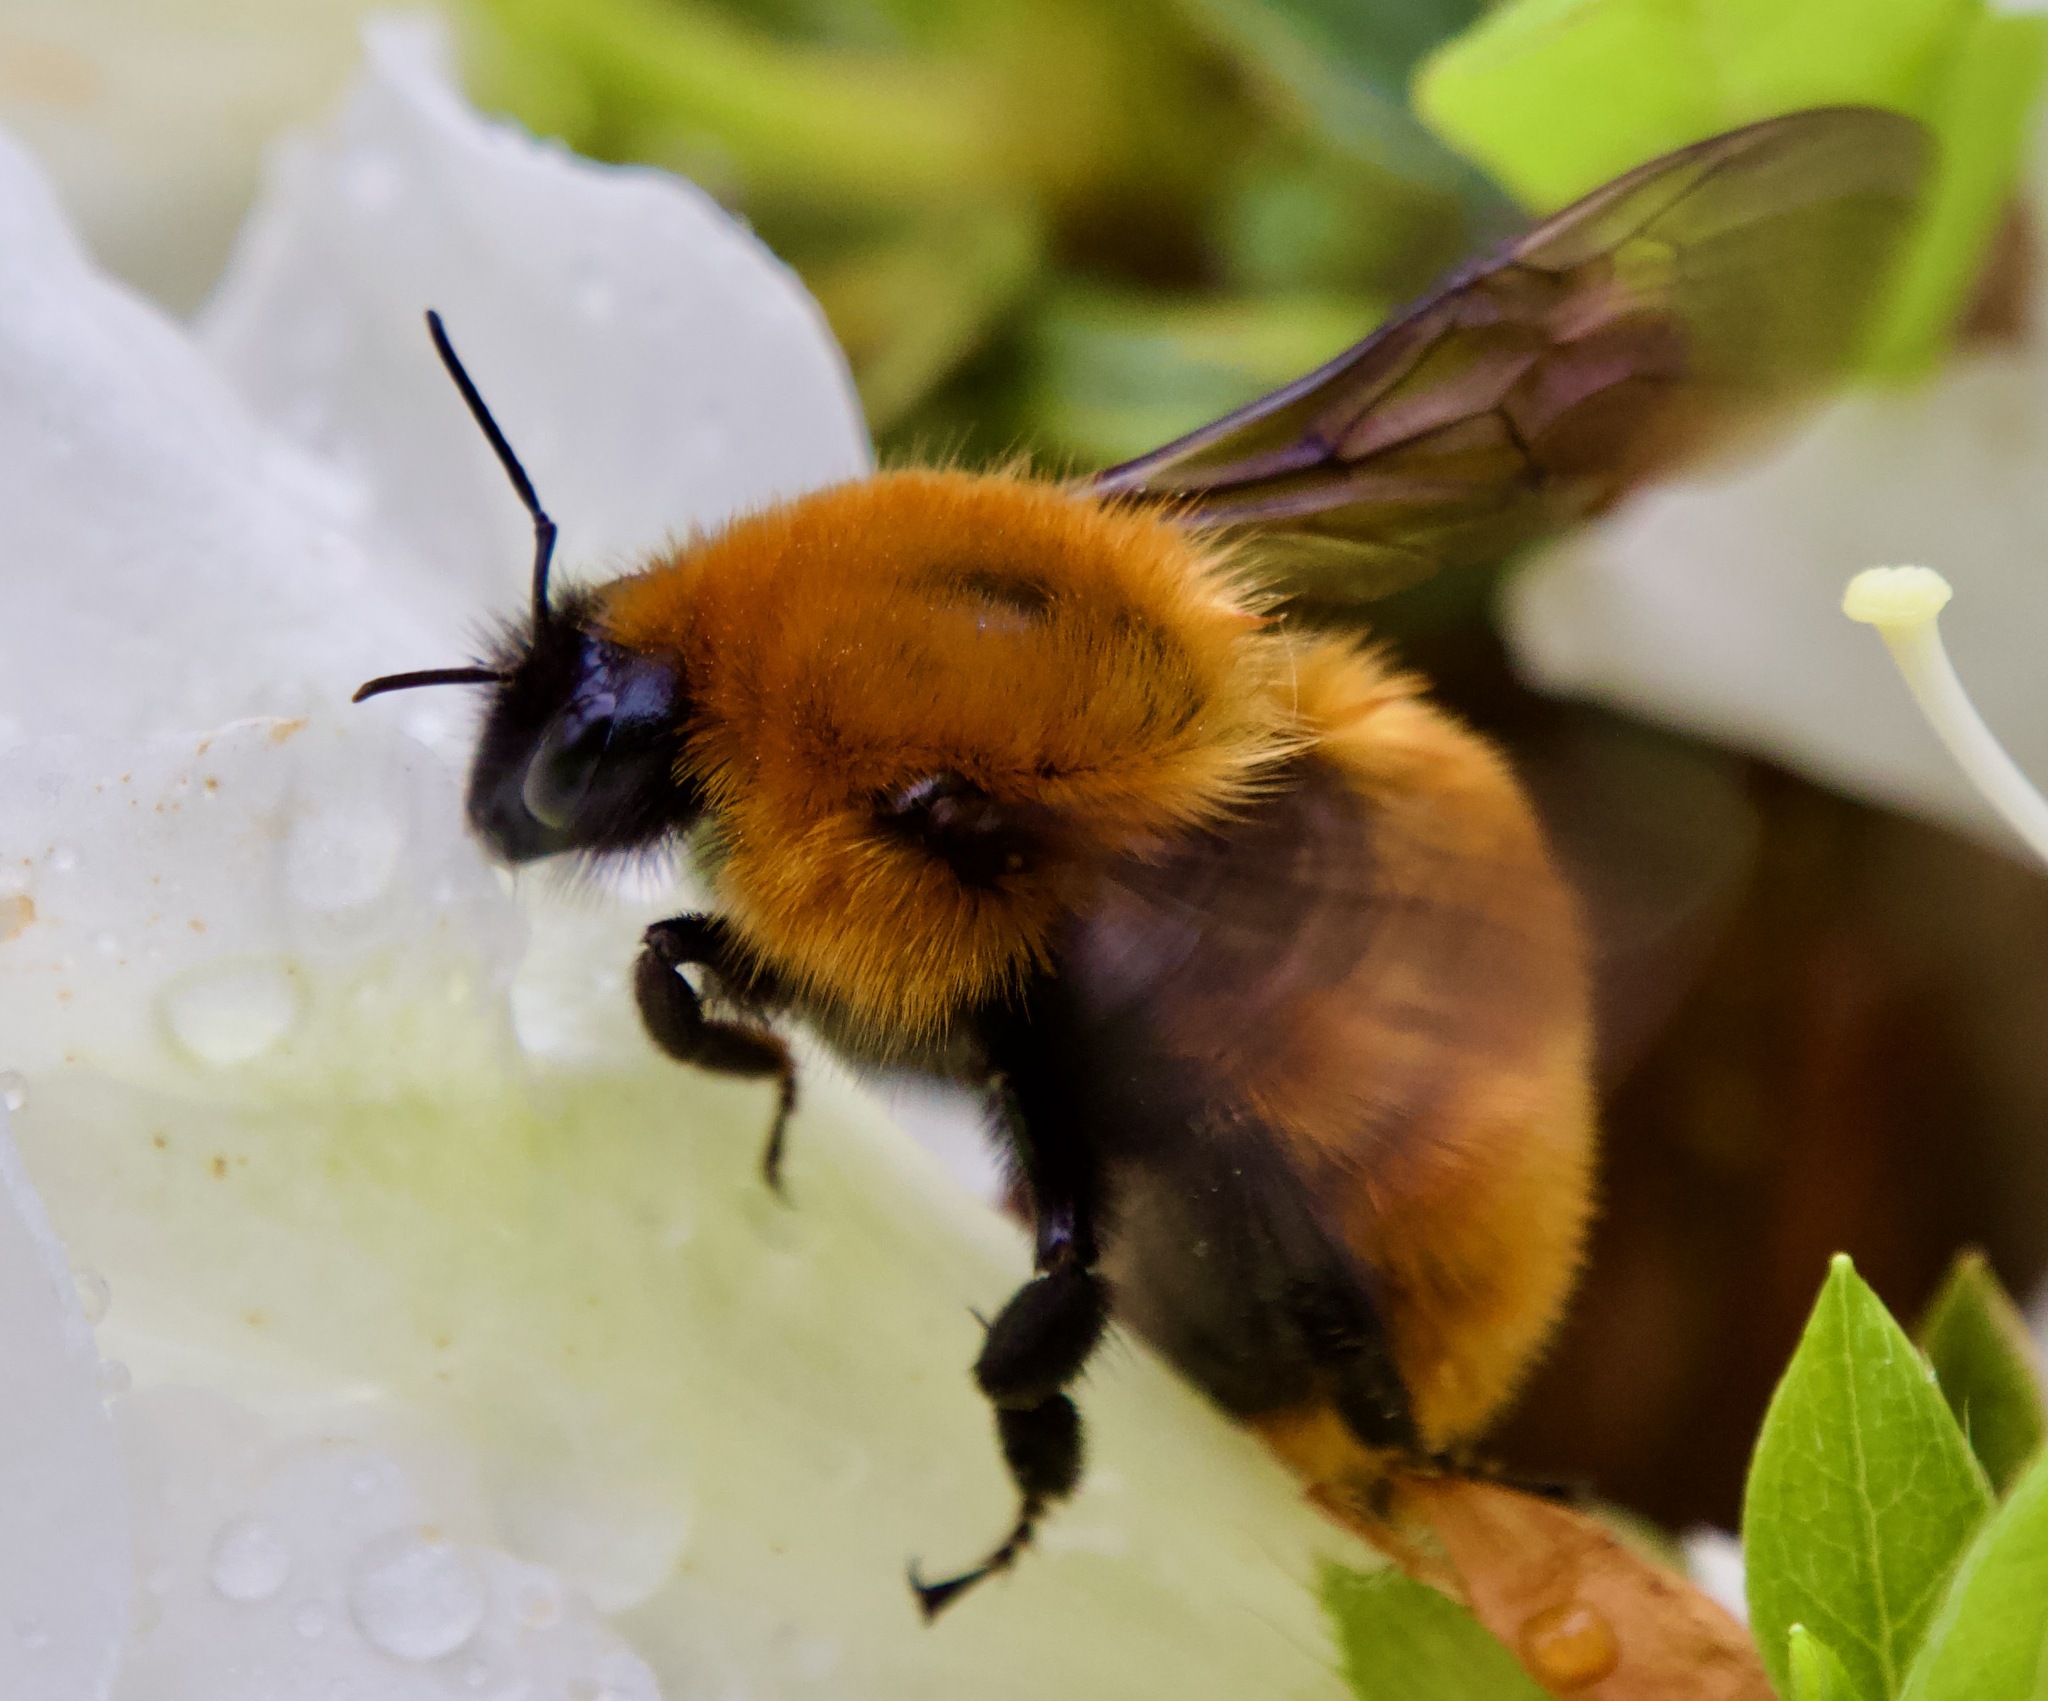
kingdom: Animalia
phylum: Arthropoda
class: Insecta
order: Hymenoptera
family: Apidae
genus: Bombus
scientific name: Bombus dahlbomii
